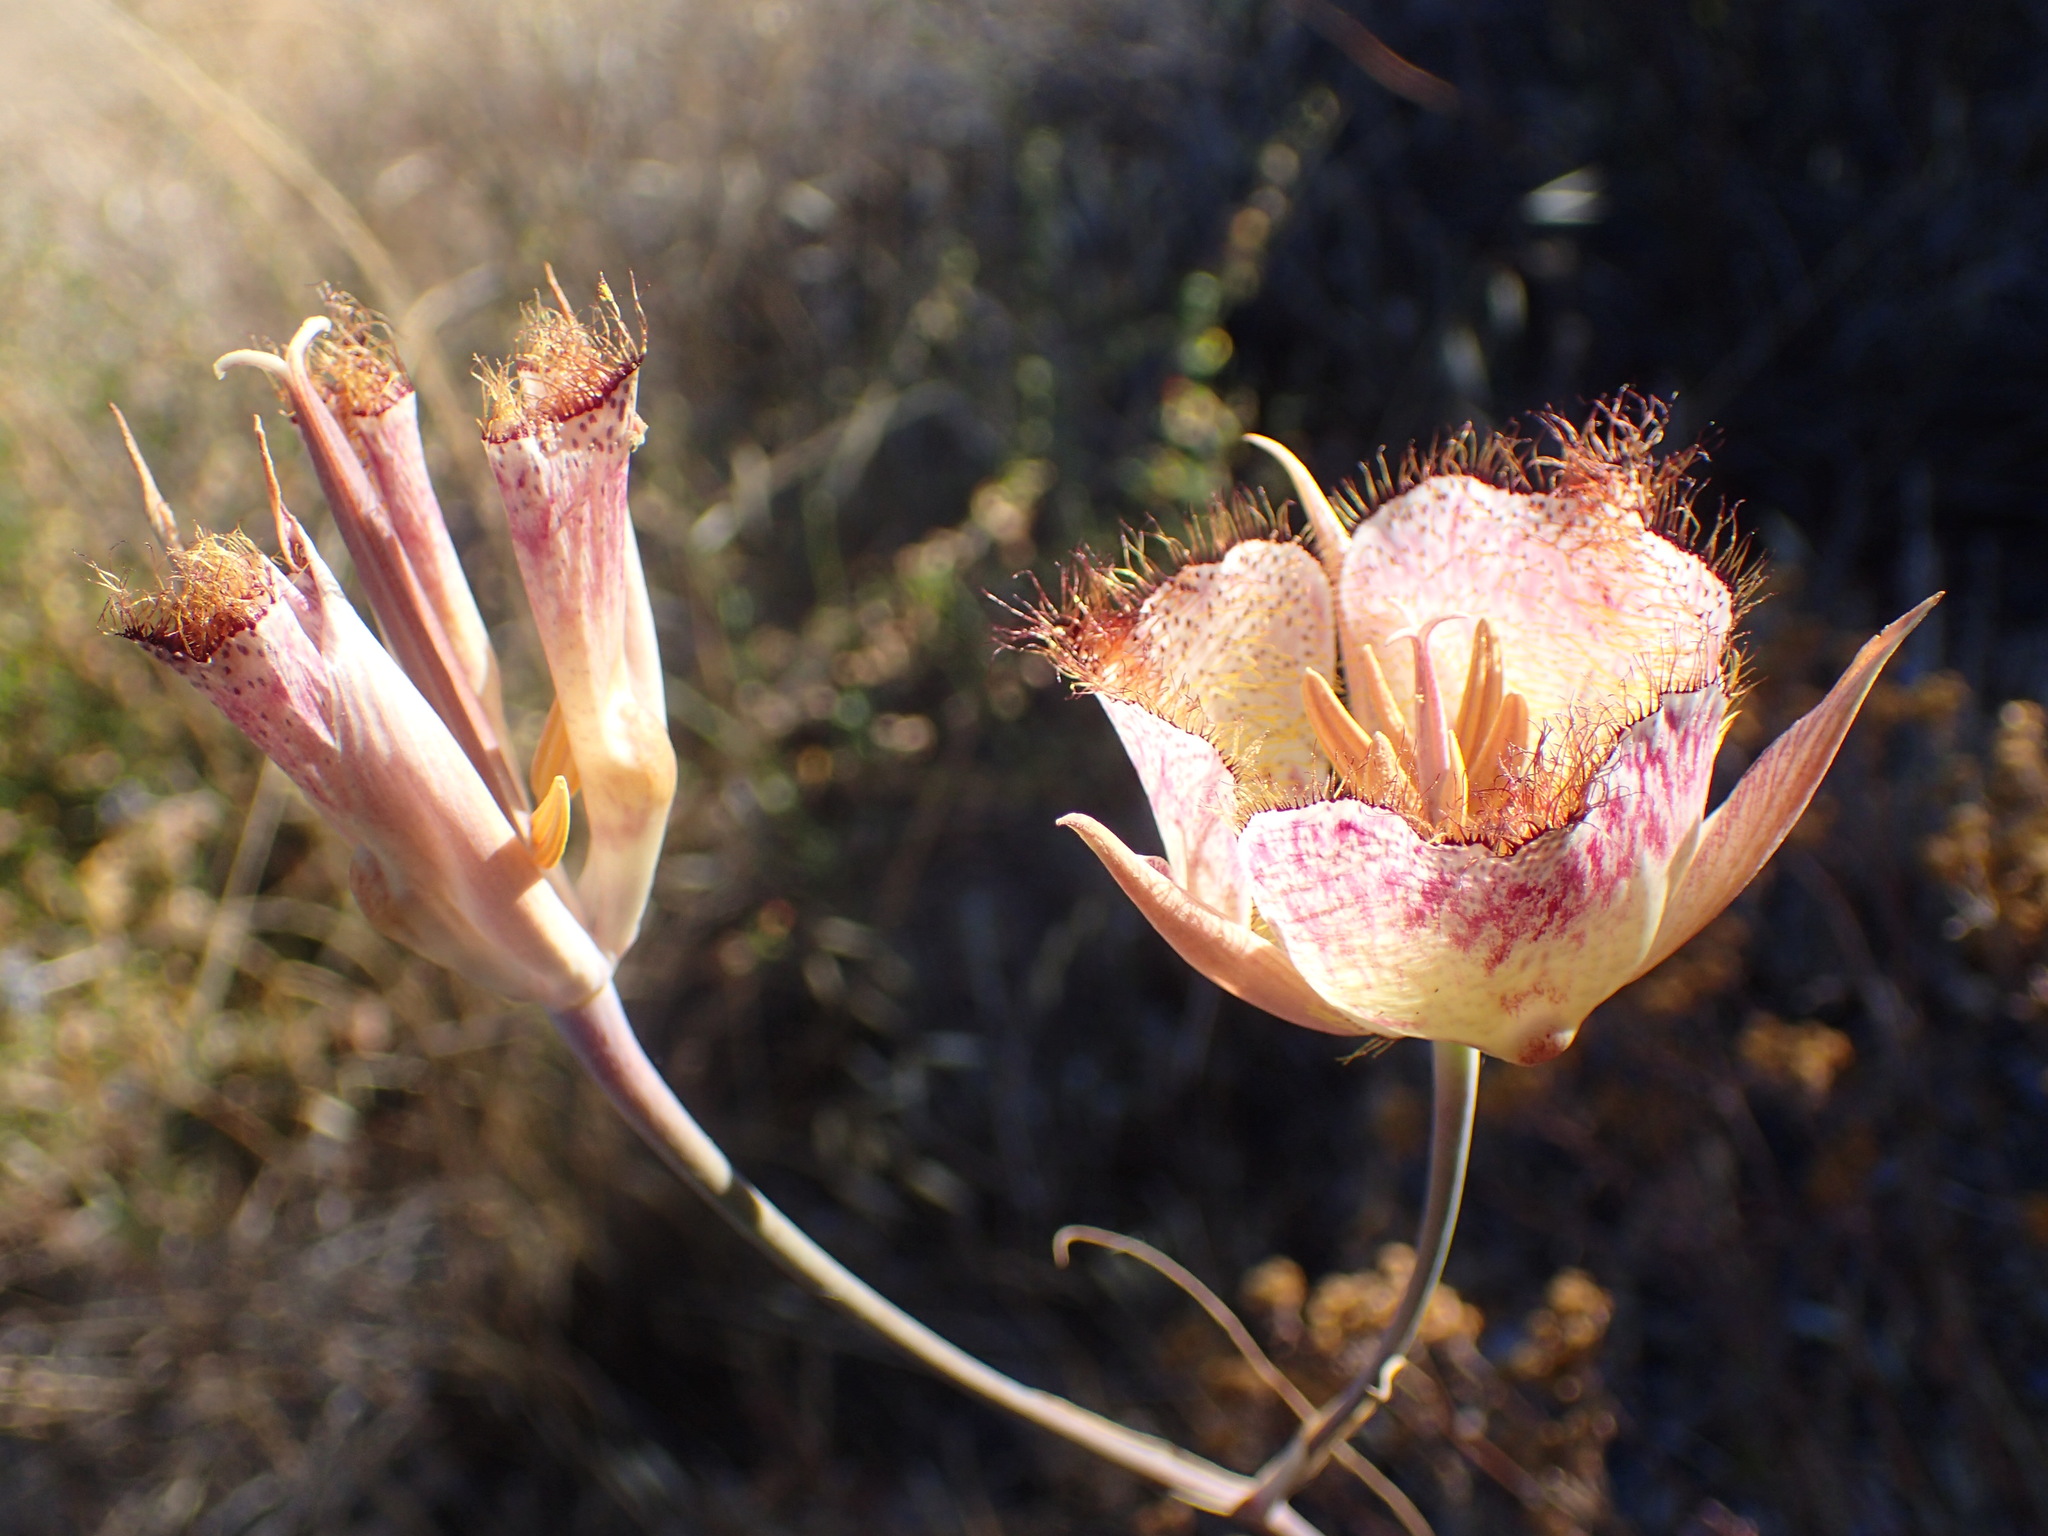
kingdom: Plantae
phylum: Tracheophyta
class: Liliopsida
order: Liliales
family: Liliaceae
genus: Calochortus
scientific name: Calochortus fimbriatus
